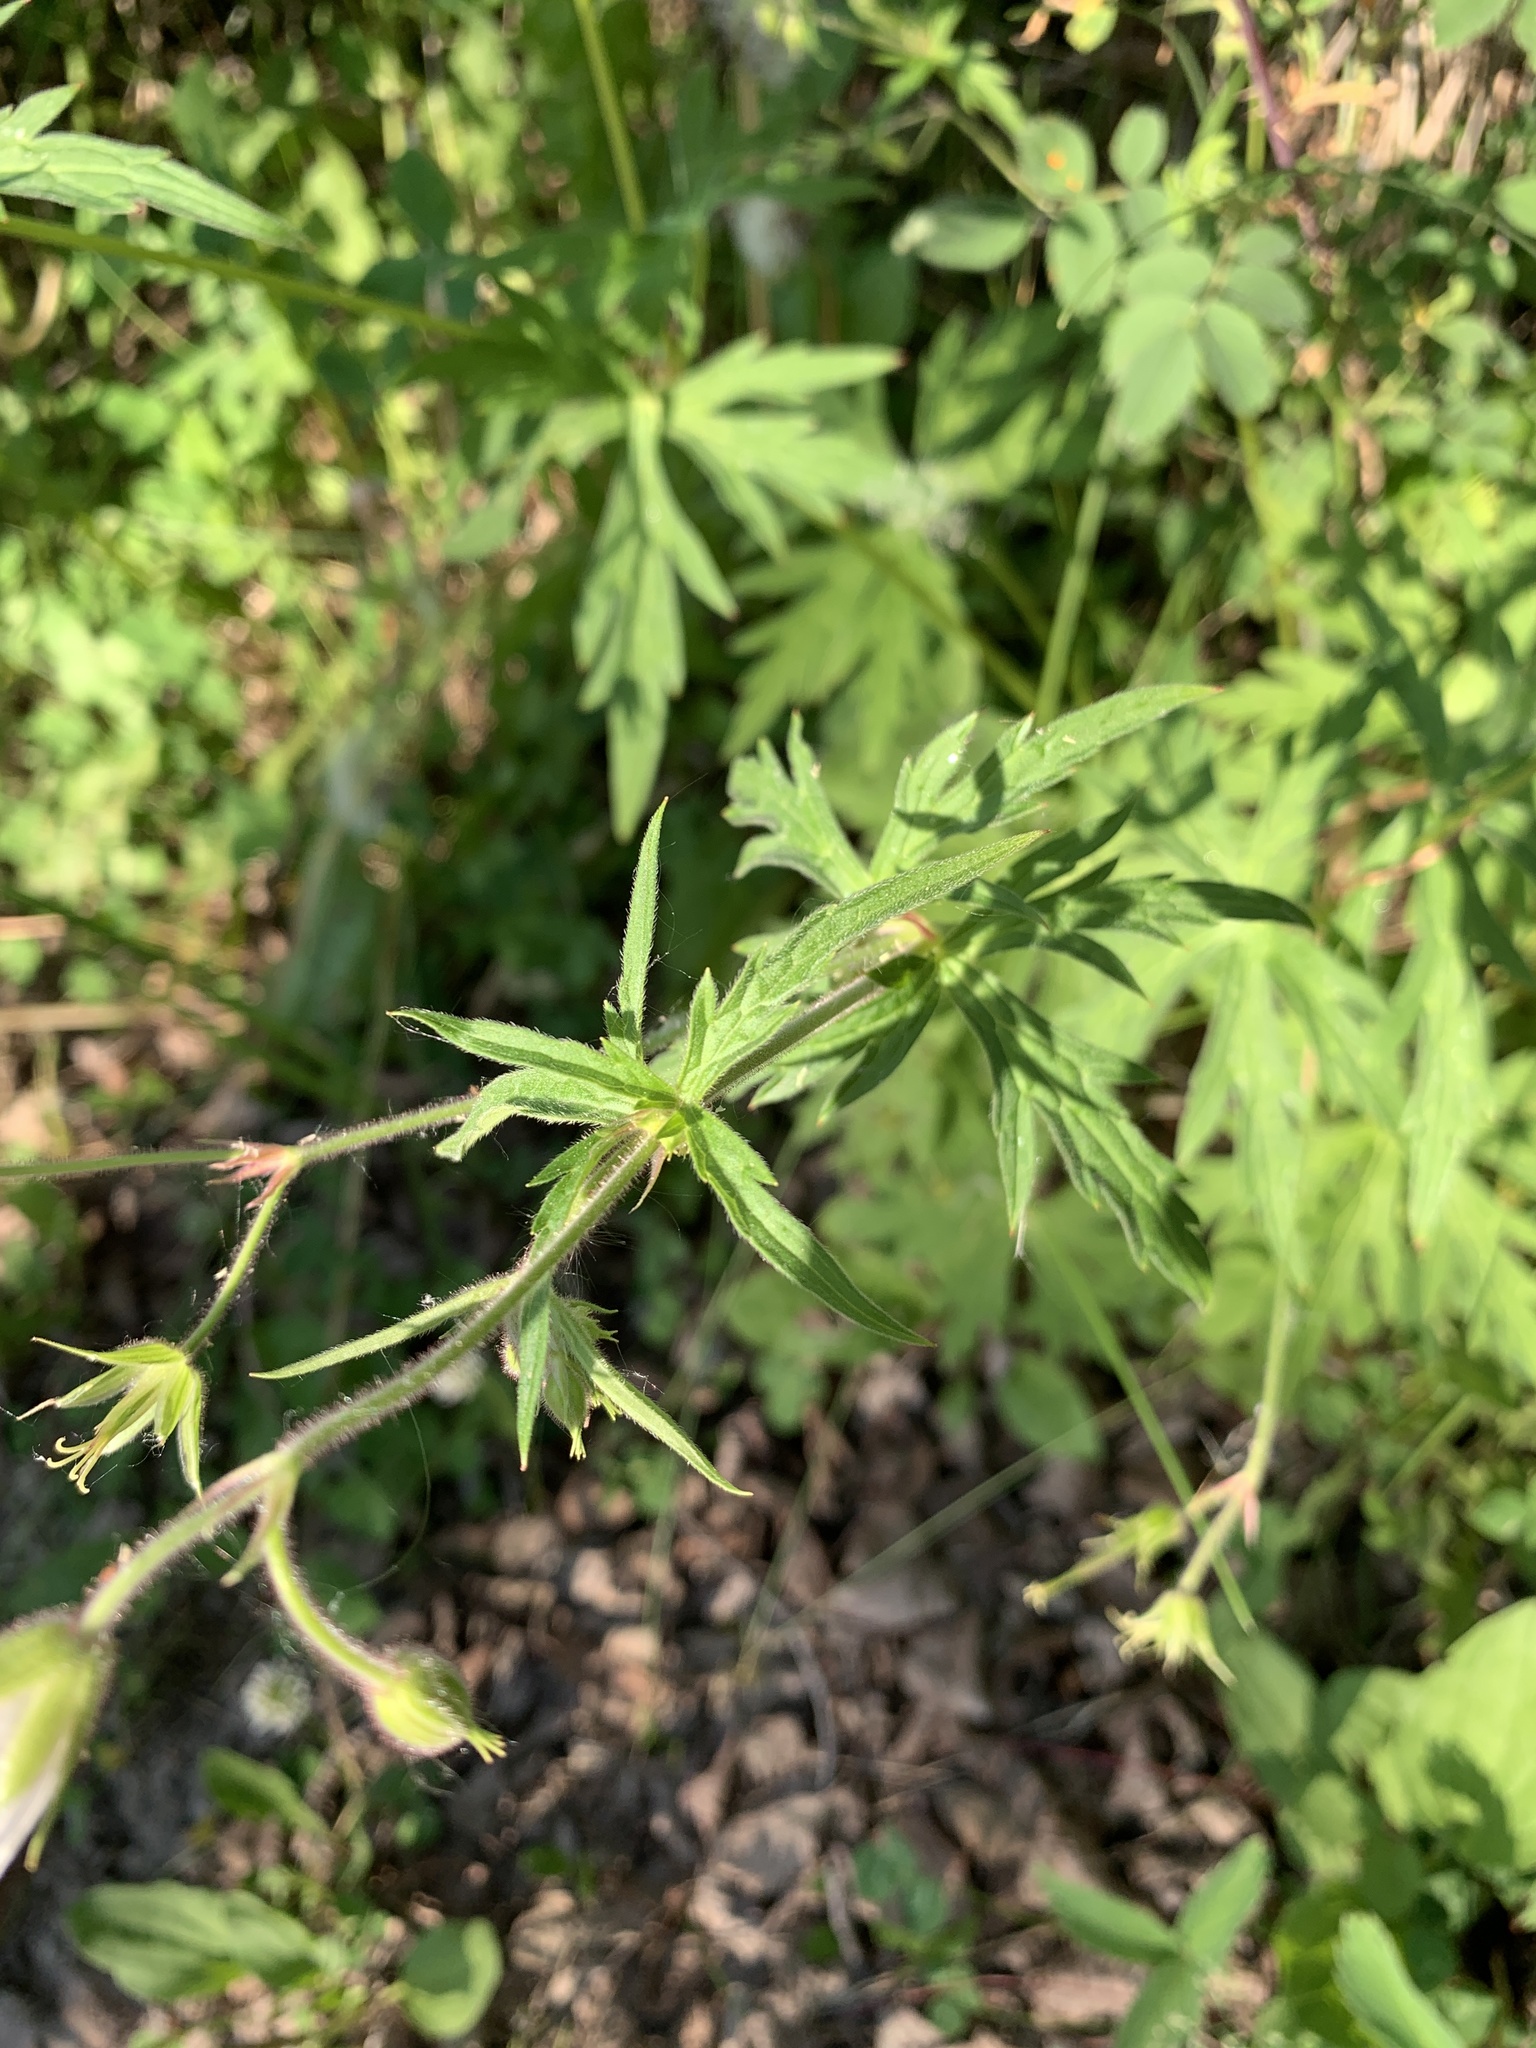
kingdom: Plantae
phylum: Tracheophyta
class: Magnoliopsida
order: Geraniales
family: Geraniaceae
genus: Geranium
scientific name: Geranium richardsonii
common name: Richardson's crane's-bill
